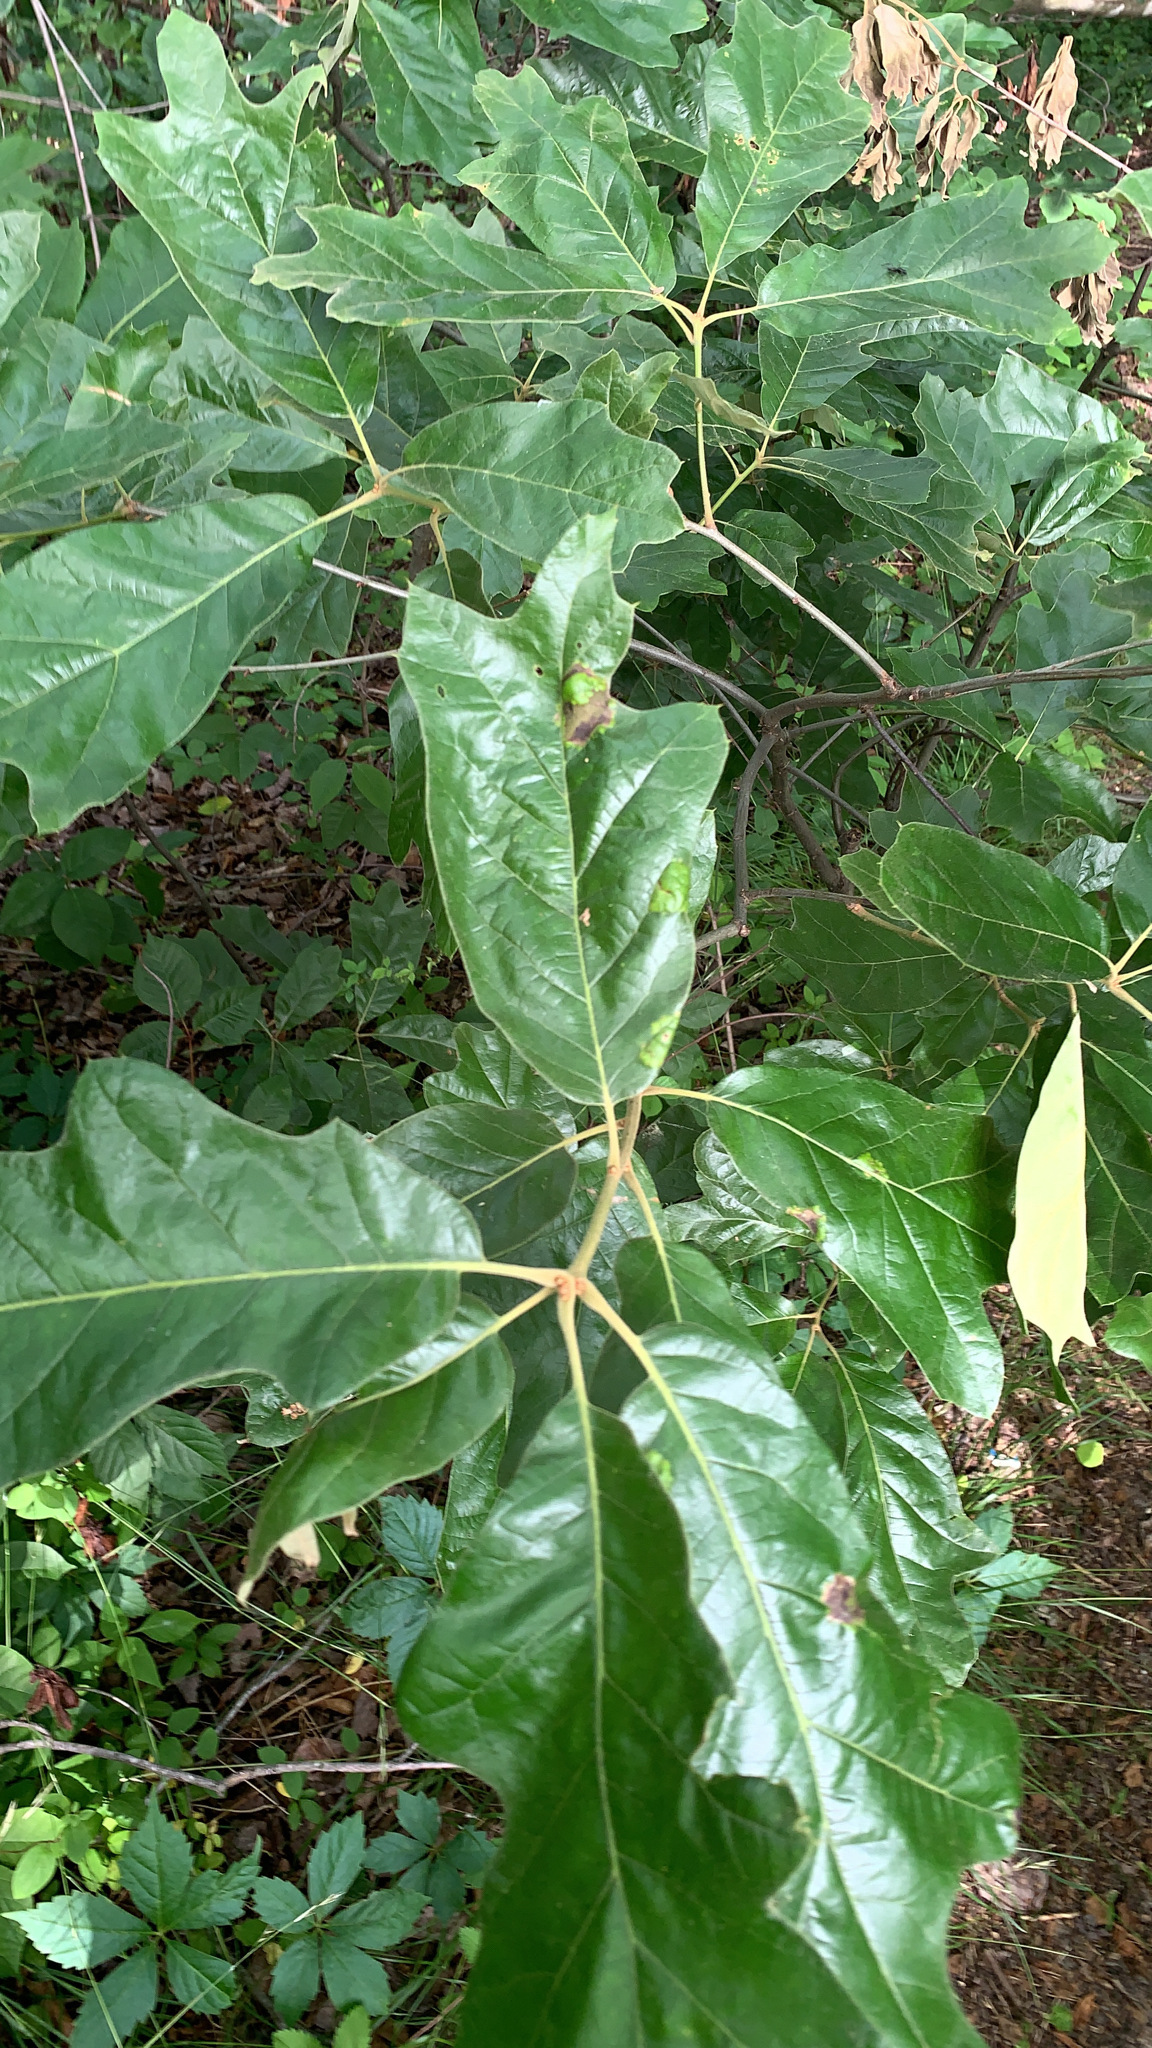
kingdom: Plantae
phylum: Tracheophyta
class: Magnoliopsida
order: Fagales
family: Fagaceae
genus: Quercus
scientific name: Quercus falcata
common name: Southern red oak
